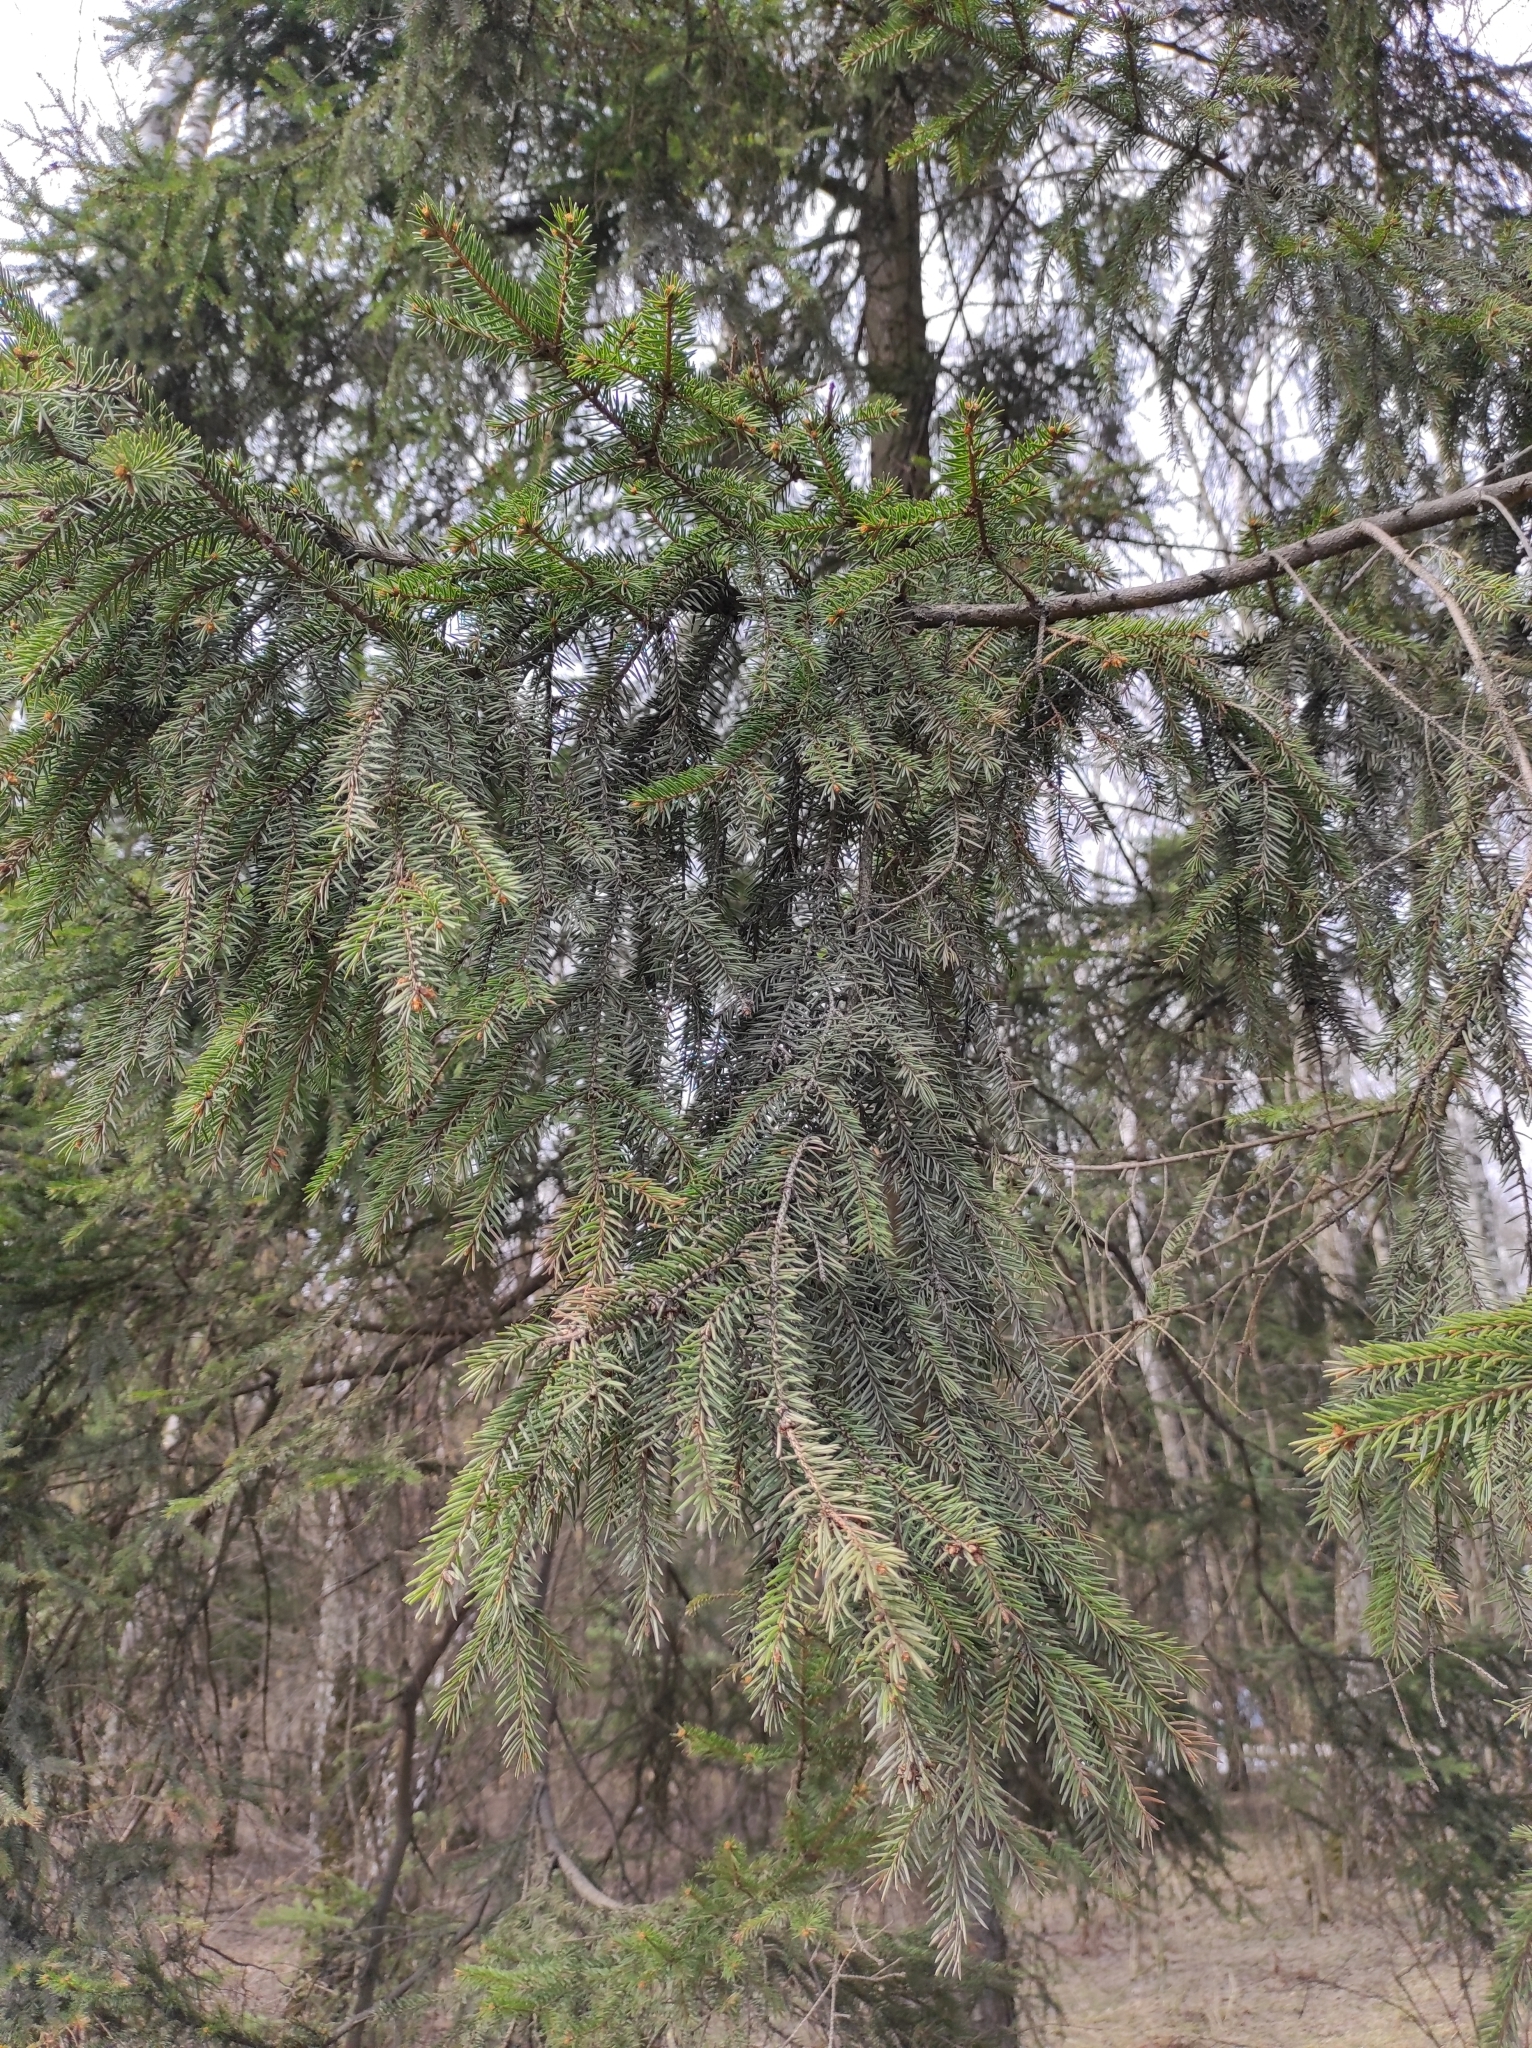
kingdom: Plantae
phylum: Tracheophyta
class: Pinopsida
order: Pinales
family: Pinaceae
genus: Picea
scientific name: Picea abies
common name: Norway spruce
